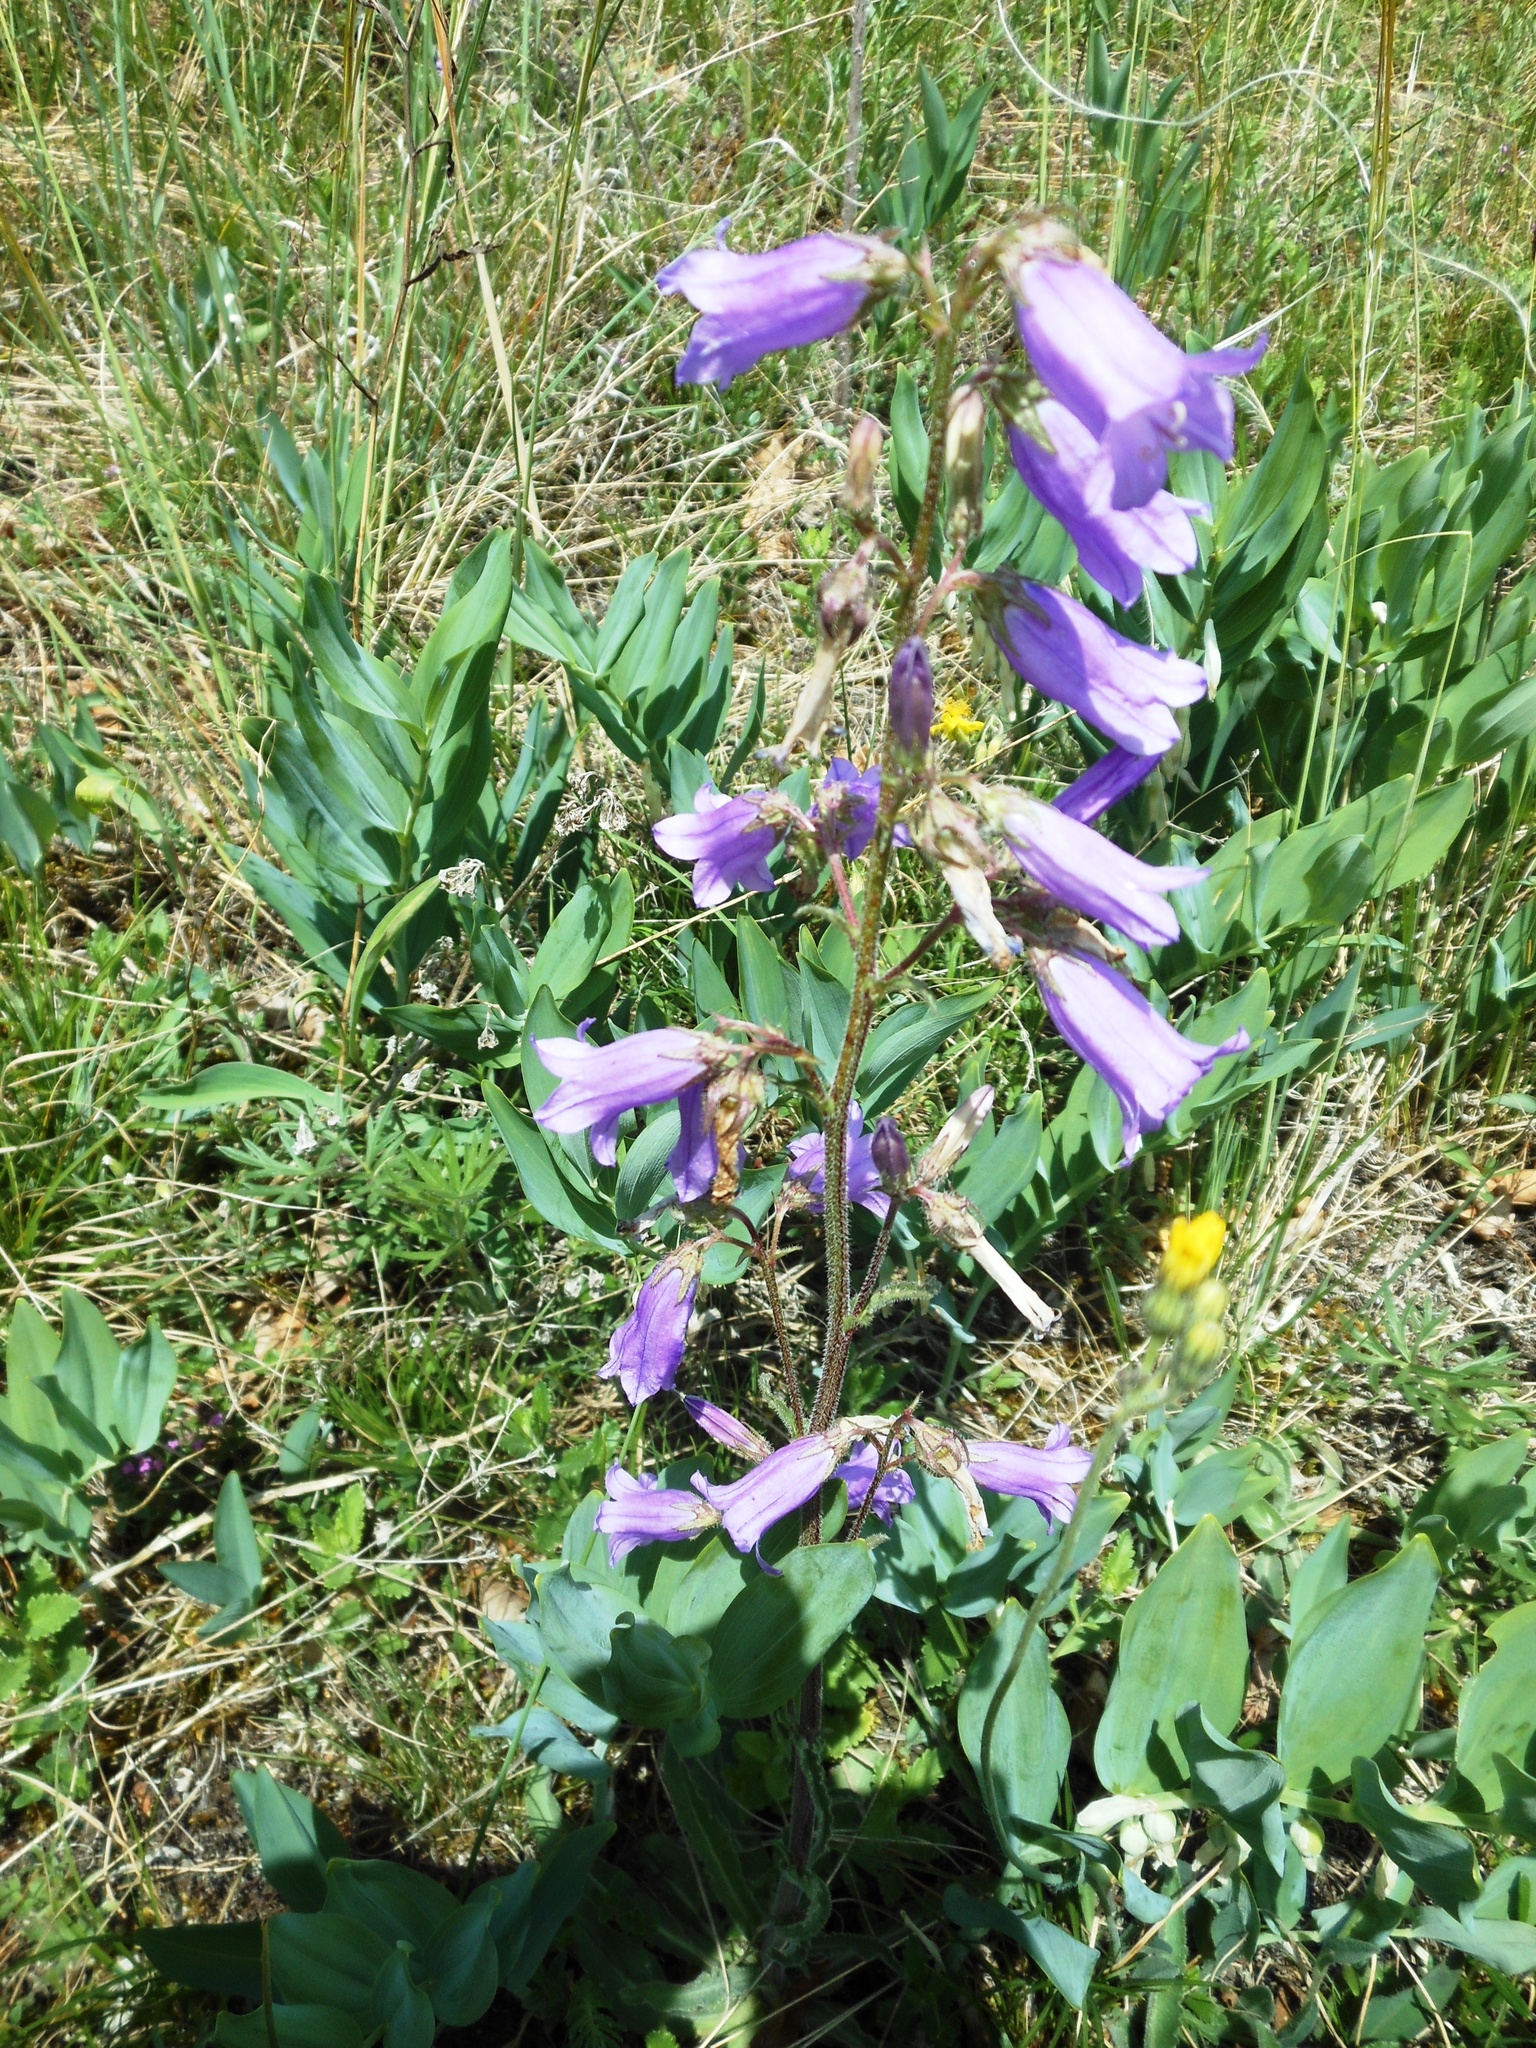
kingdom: Plantae
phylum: Tracheophyta
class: Magnoliopsida
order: Asterales
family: Campanulaceae
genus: Campanula
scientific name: Campanula sibirica
